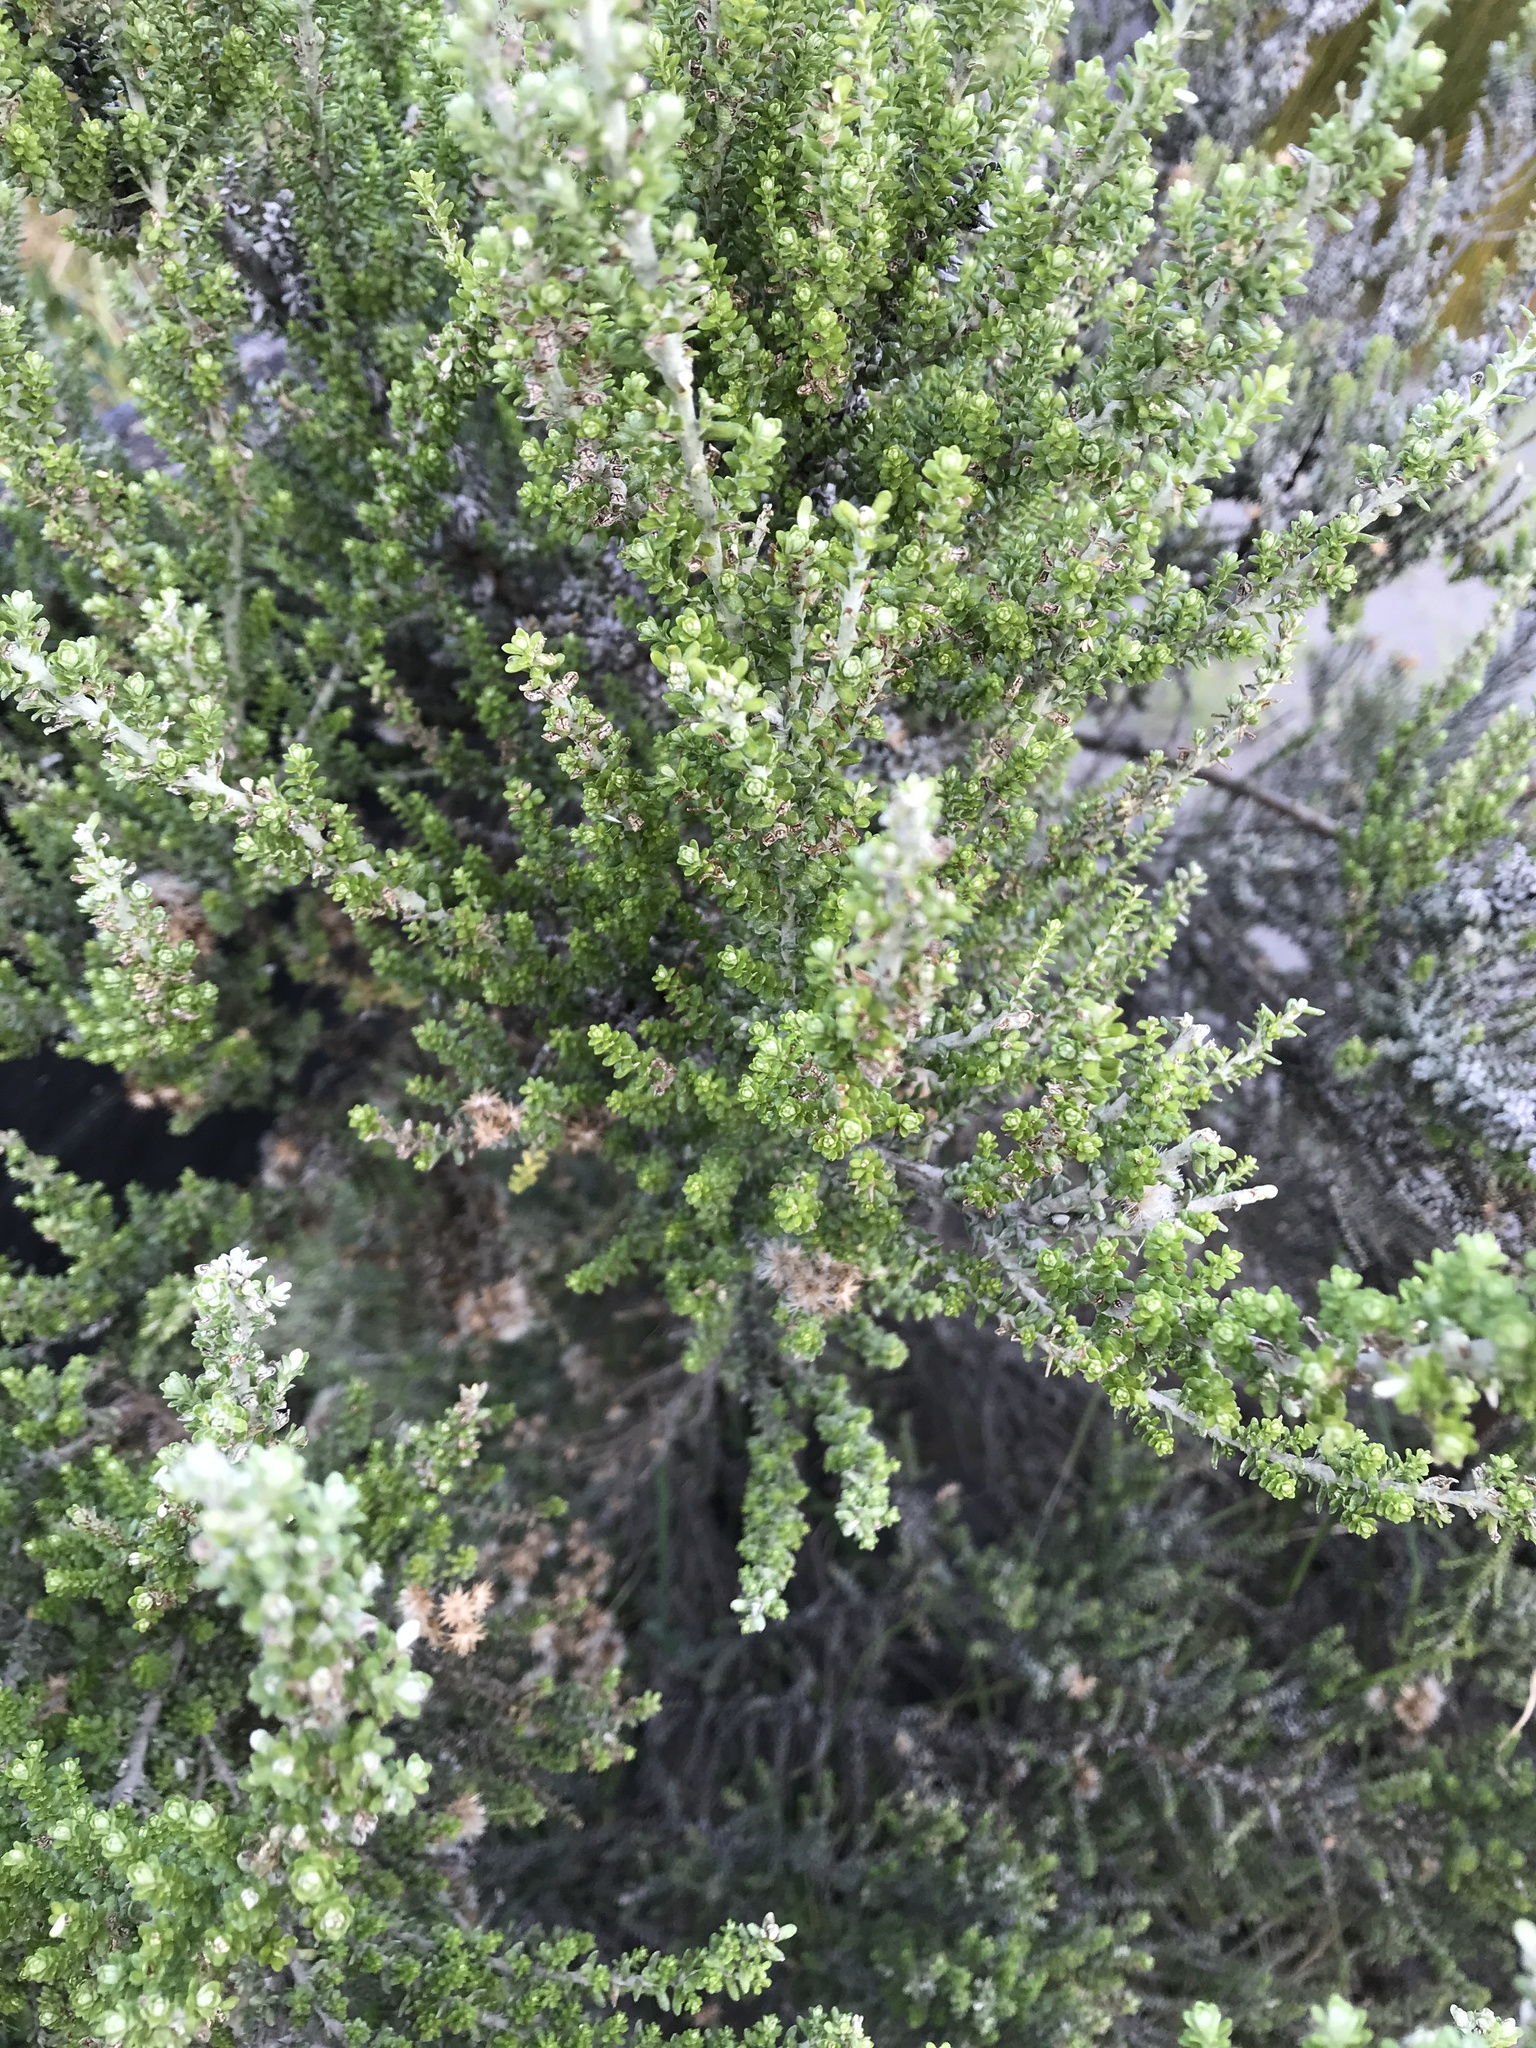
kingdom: Plantae
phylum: Tracheophyta
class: Magnoliopsida
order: Asterales
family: Asteraceae
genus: Ozothamnus
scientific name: Ozothamnus leptophyllus
